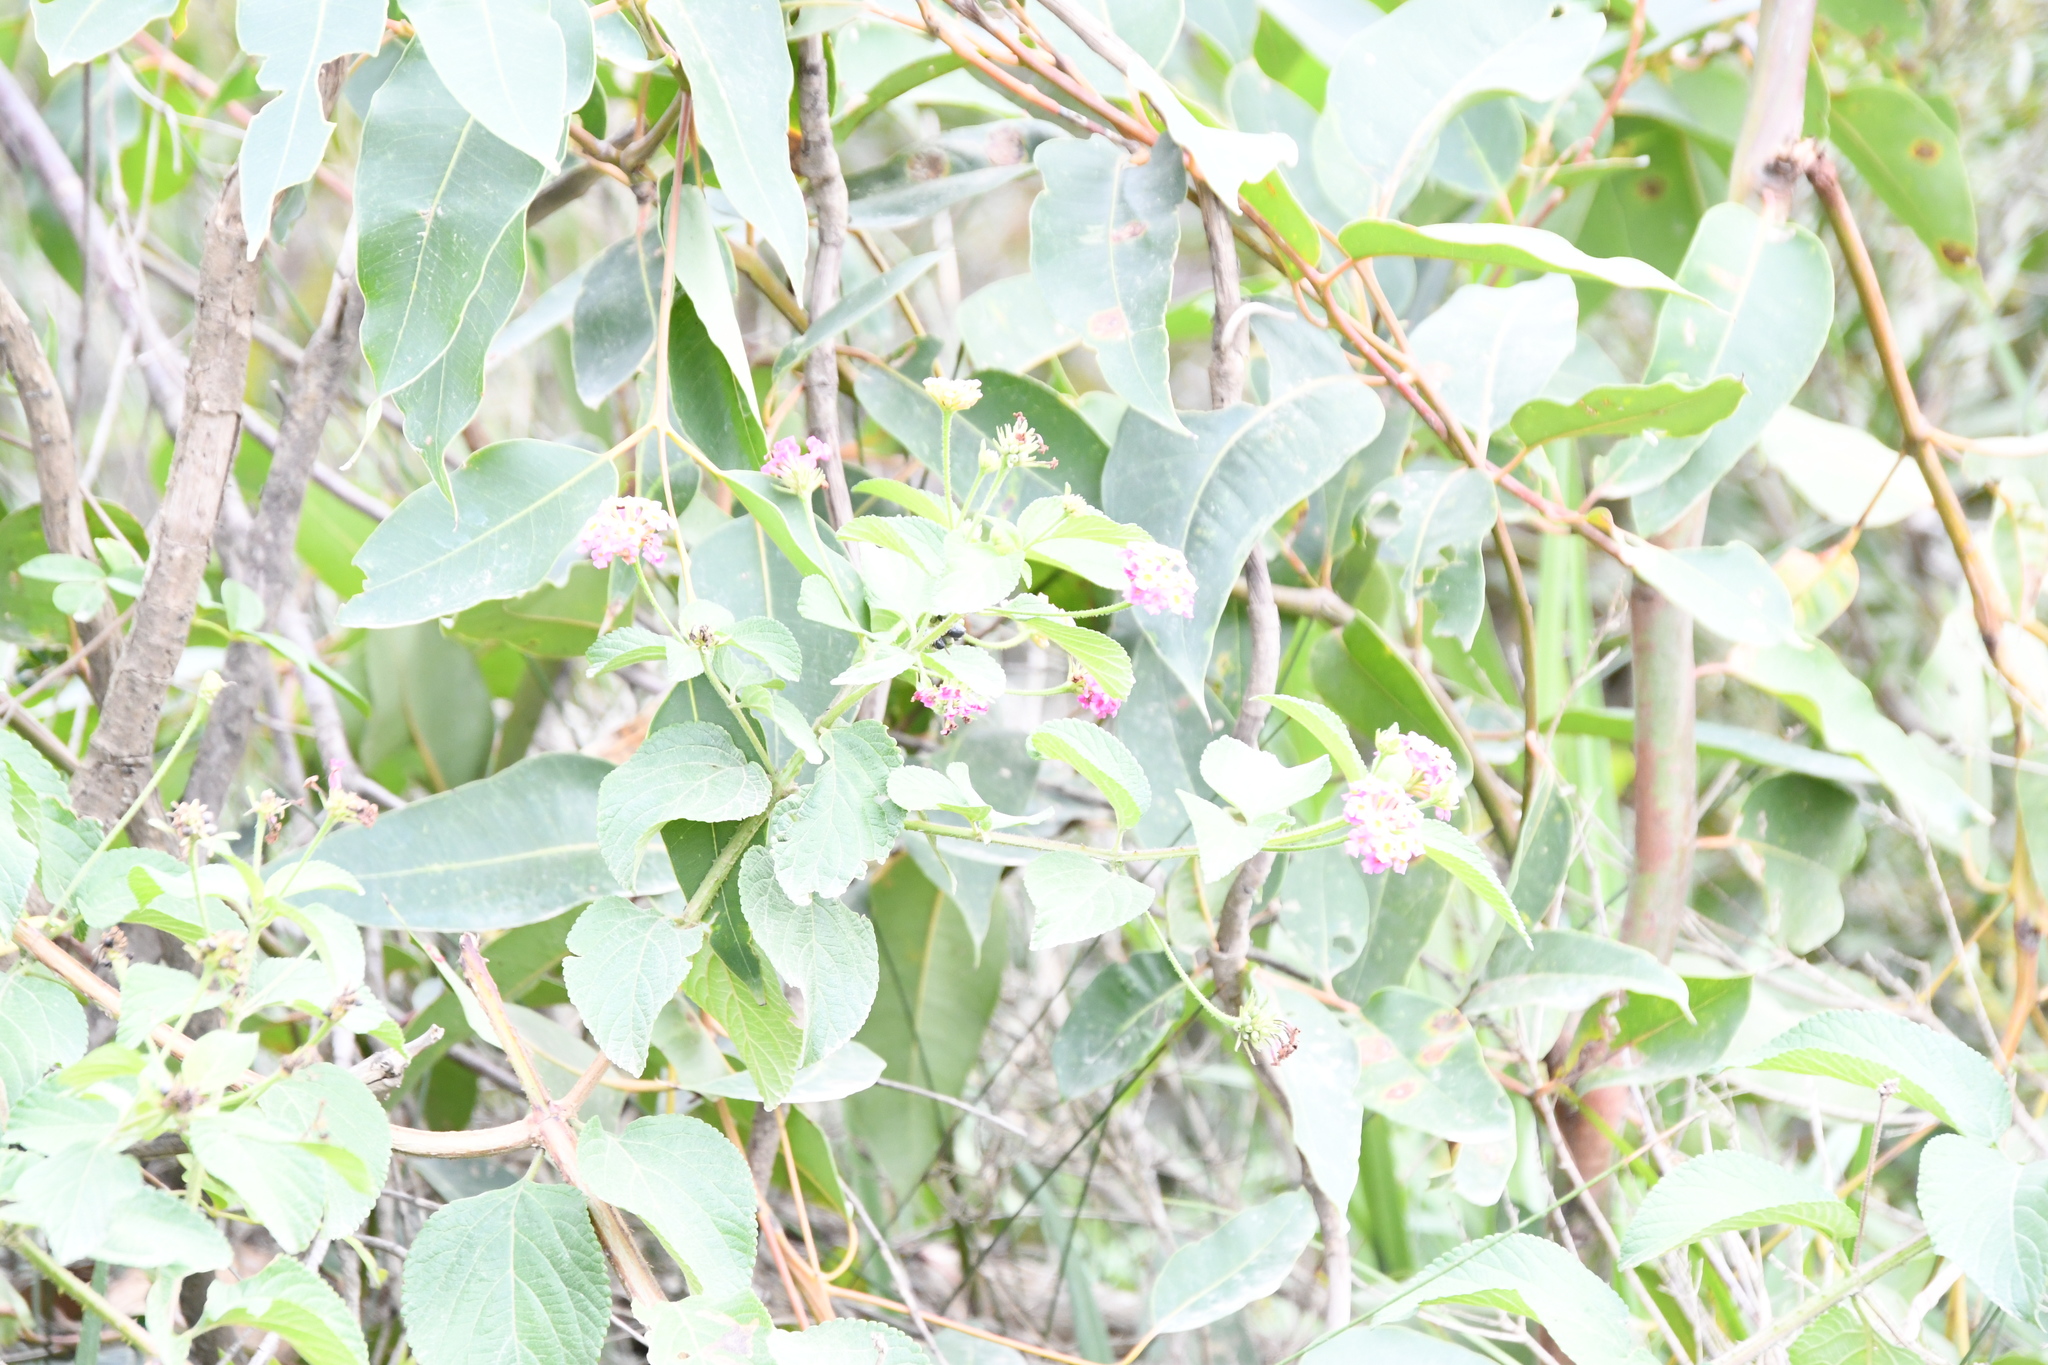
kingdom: Plantae
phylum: Tracheophyta
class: Magnoliopsida
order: Lamiales
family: Verbenaceae
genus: Lantana
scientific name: Lantana camara
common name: Lantana
